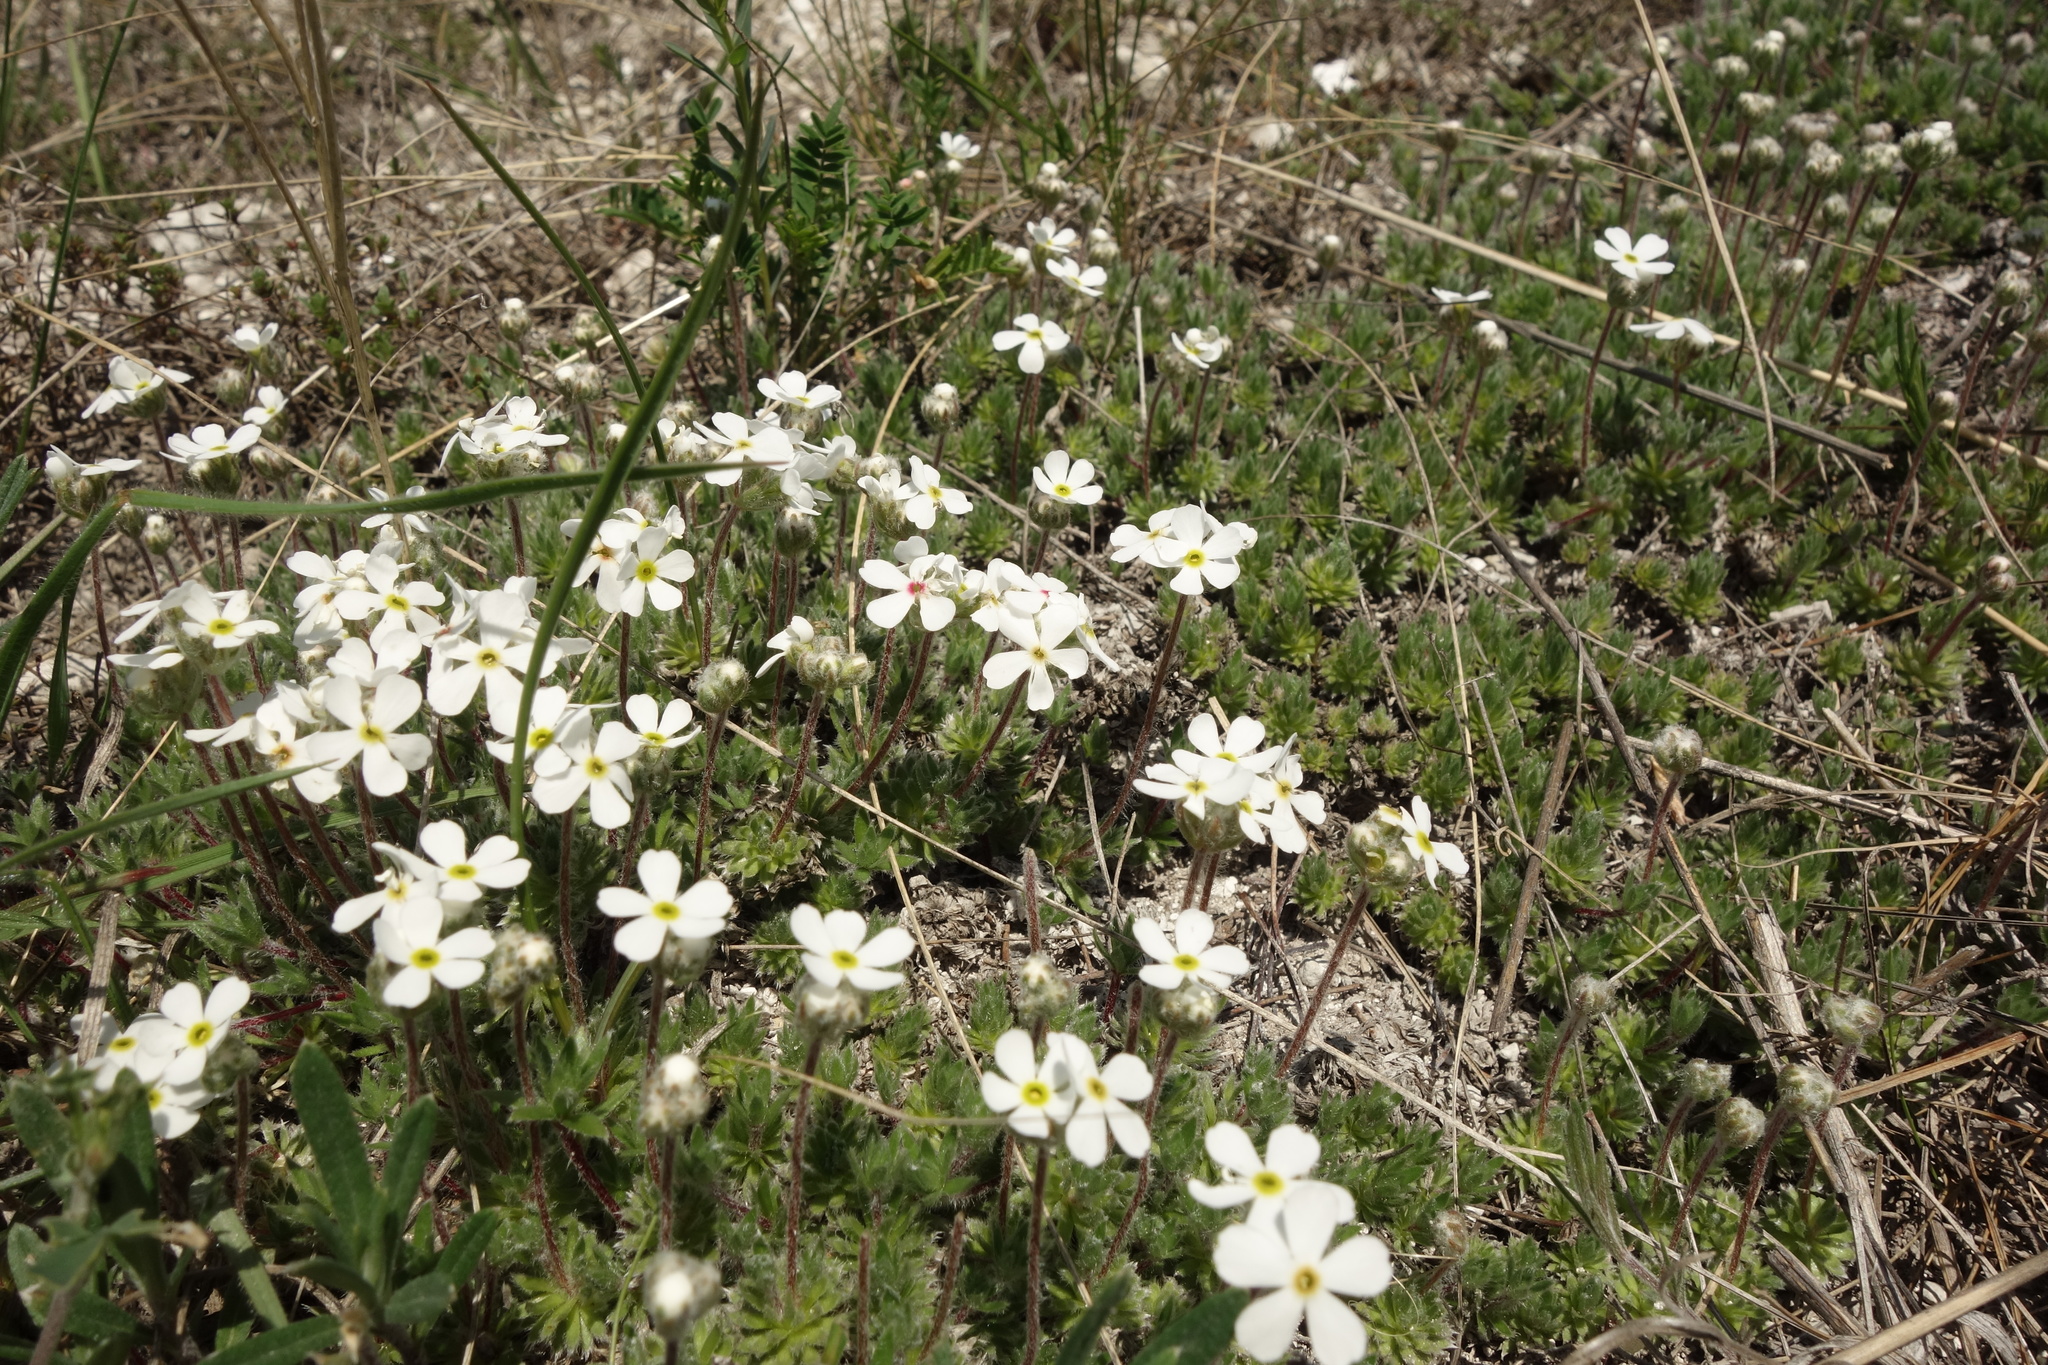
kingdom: Plantae
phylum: Tracheophyta
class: Magnoliopsida
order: Ericales
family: Primulaceae
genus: Androsace
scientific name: Androsace villosa
